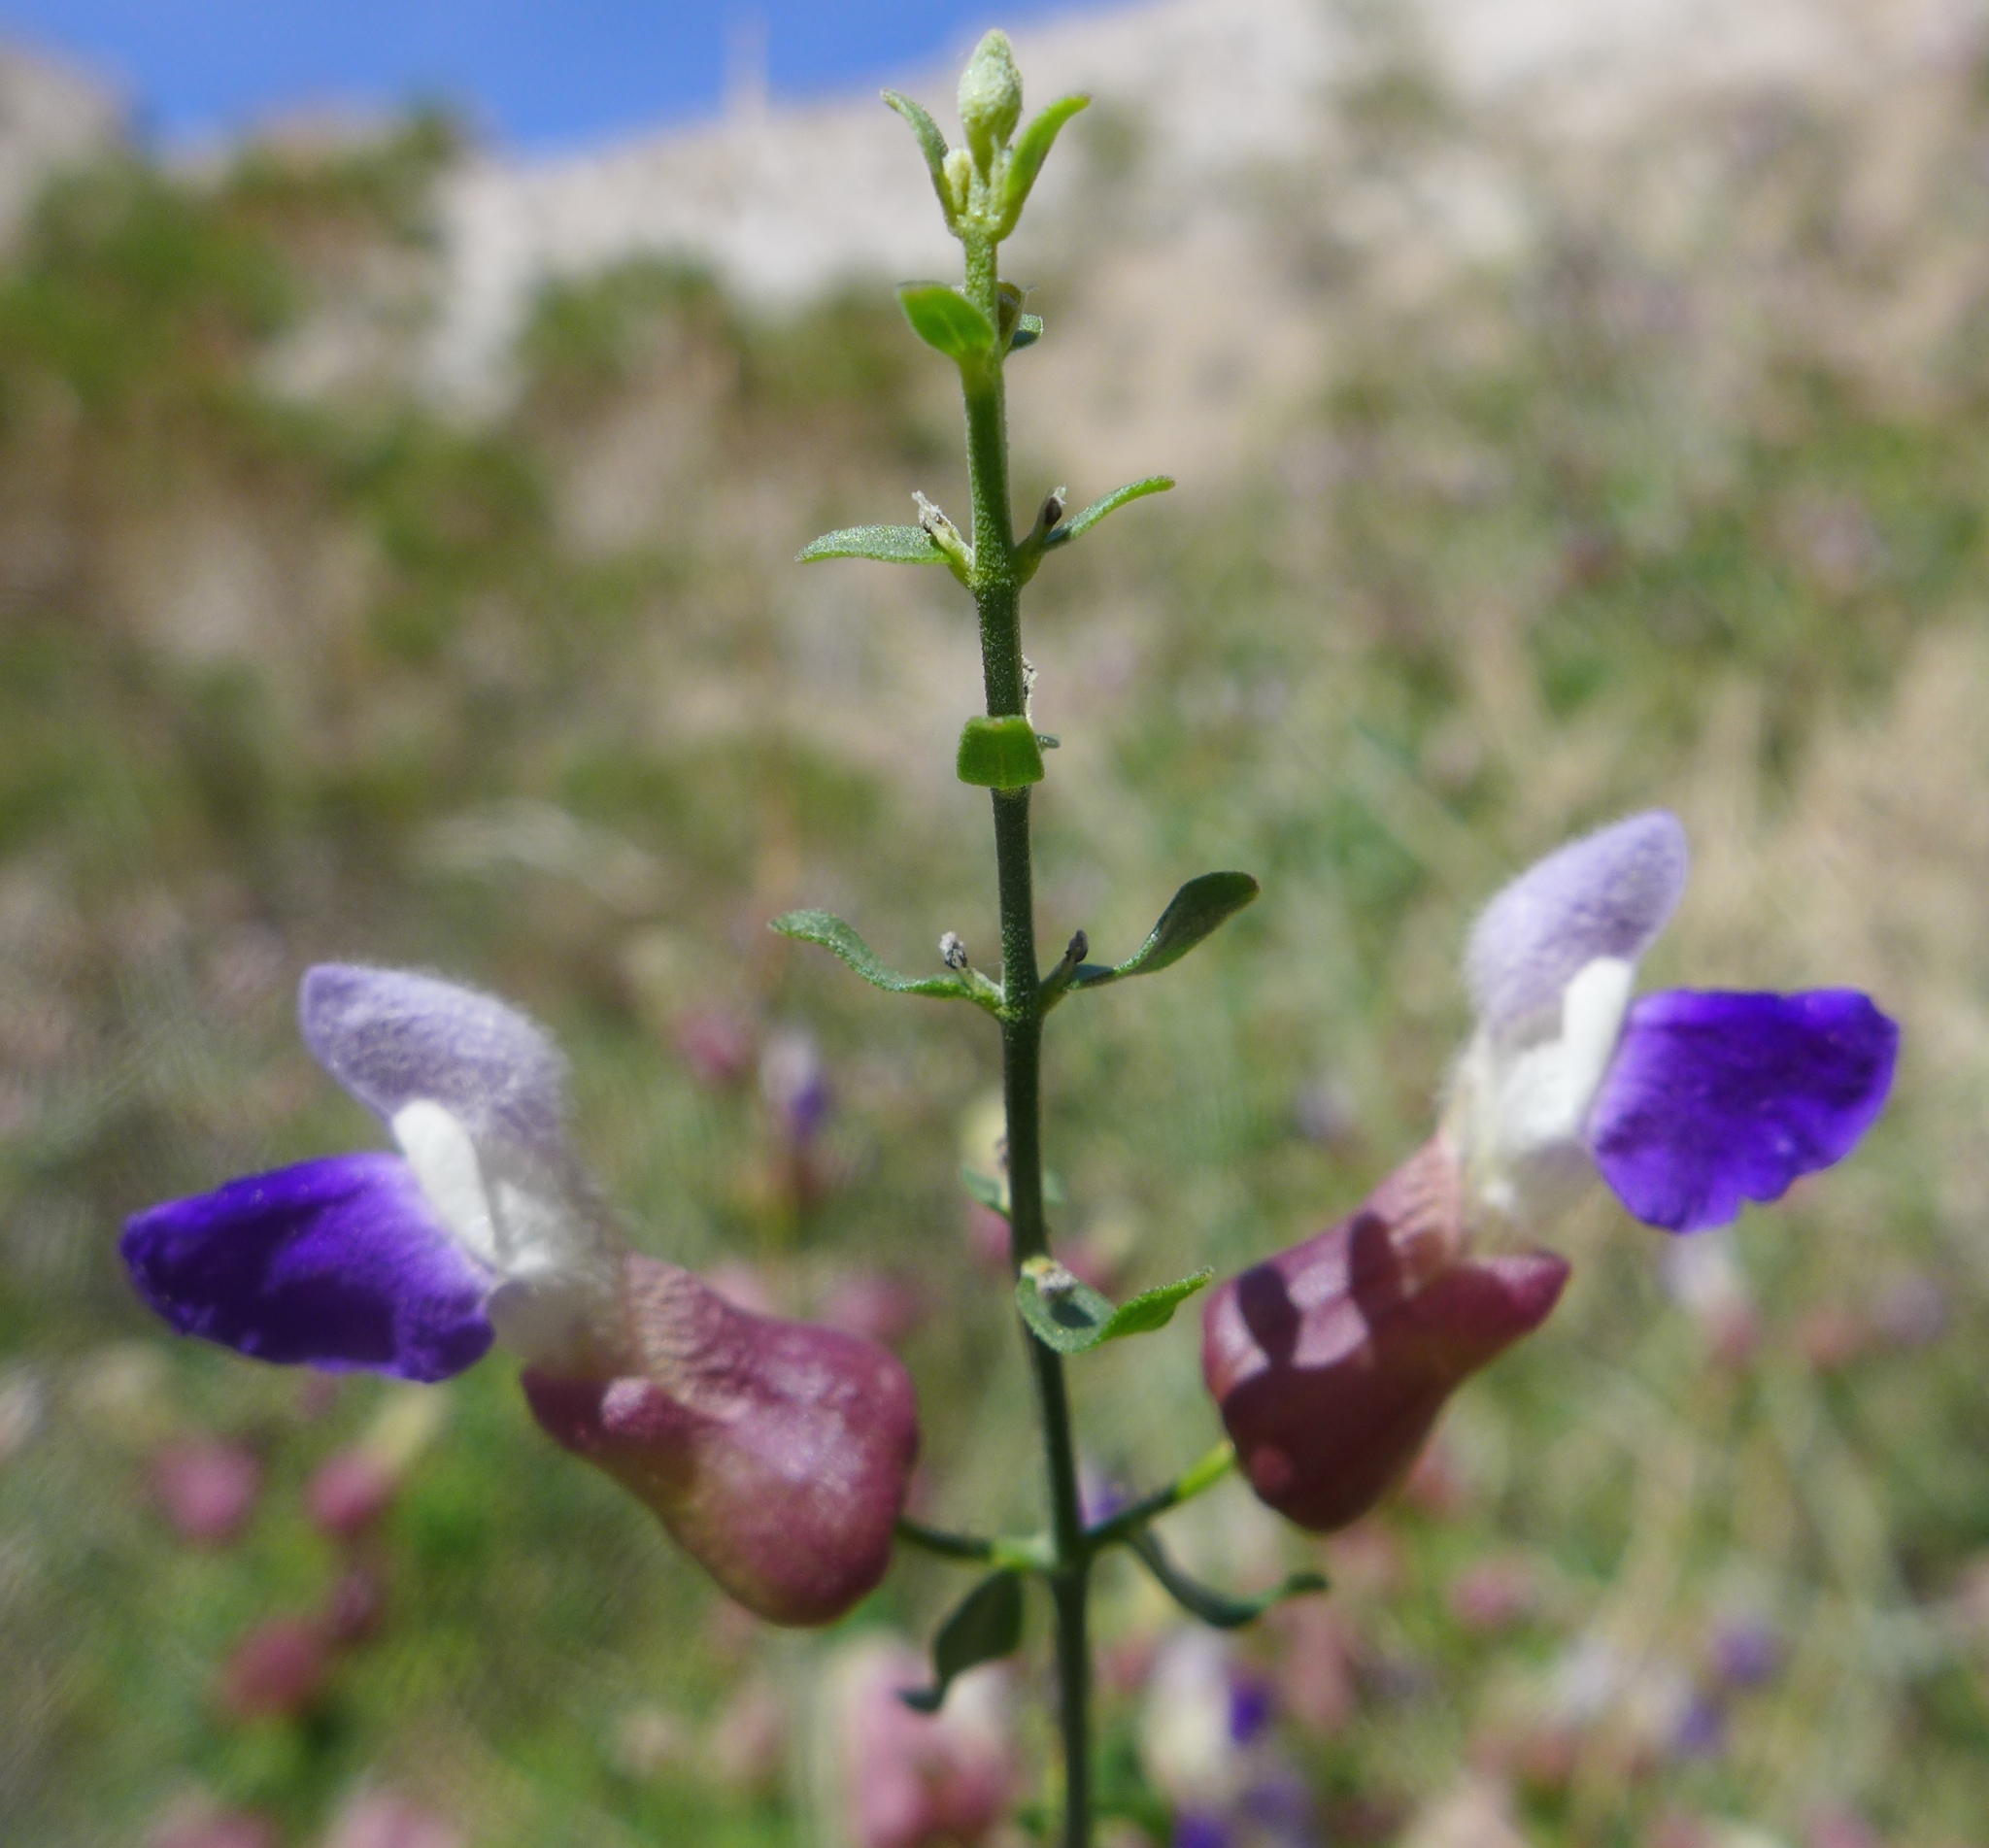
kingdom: Plantae
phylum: Tracheophyta
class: Magnoliopsida
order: Lamiales
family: Lamiaceae
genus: Scutellaria
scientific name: Scutellaria mexicana
